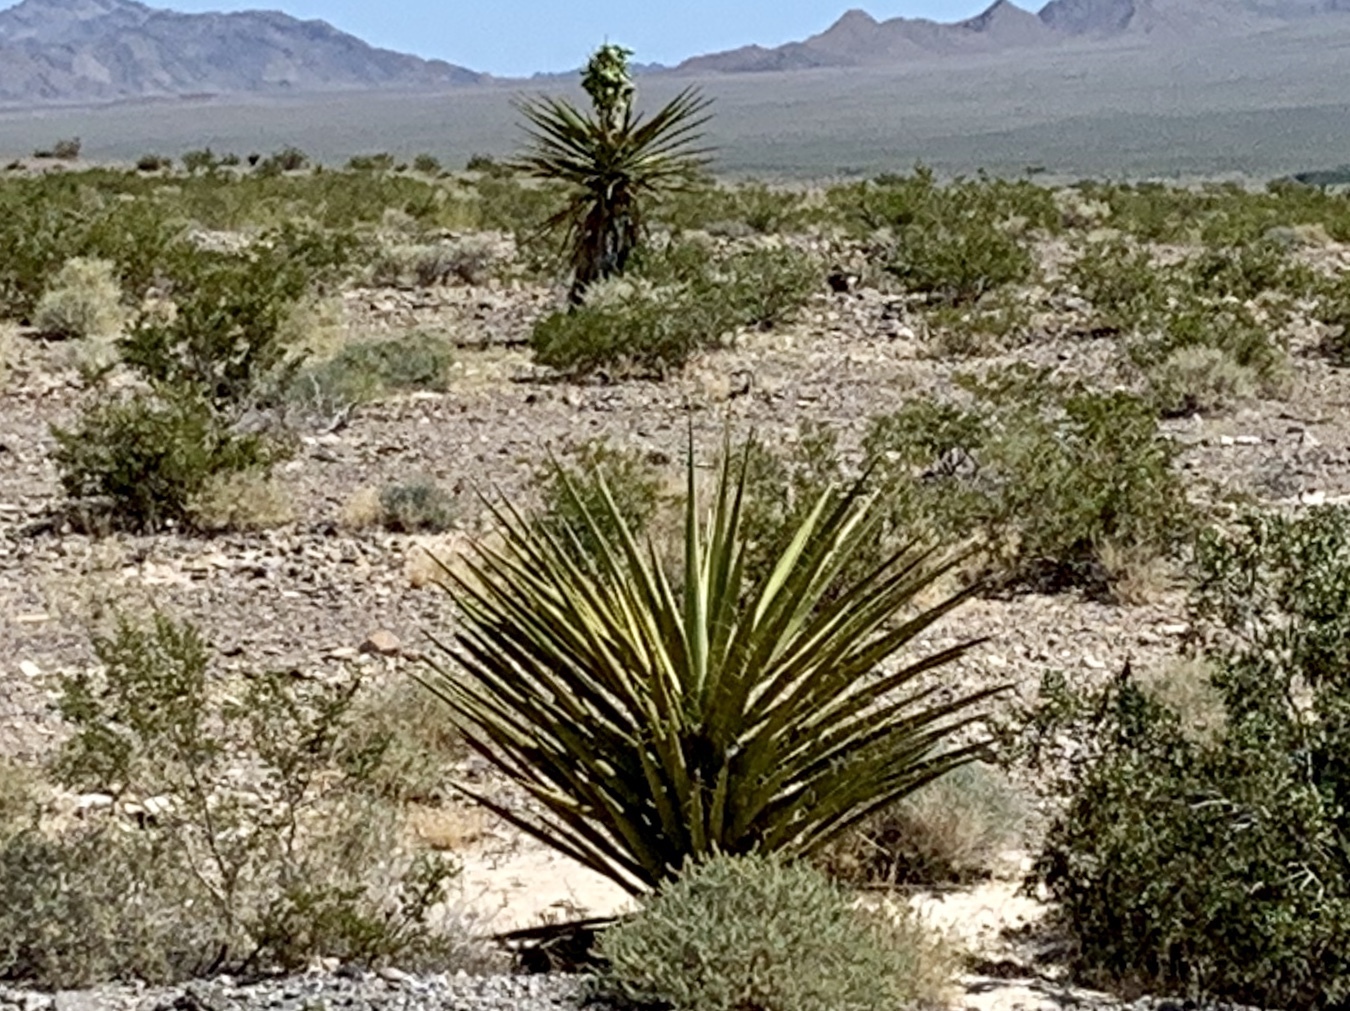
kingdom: Plantae
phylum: Tracheophyta
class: Liliopsida
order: Asparagales
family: Asparagaceae
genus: Yucca
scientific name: Yucca schidigera
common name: Mojave yucca
